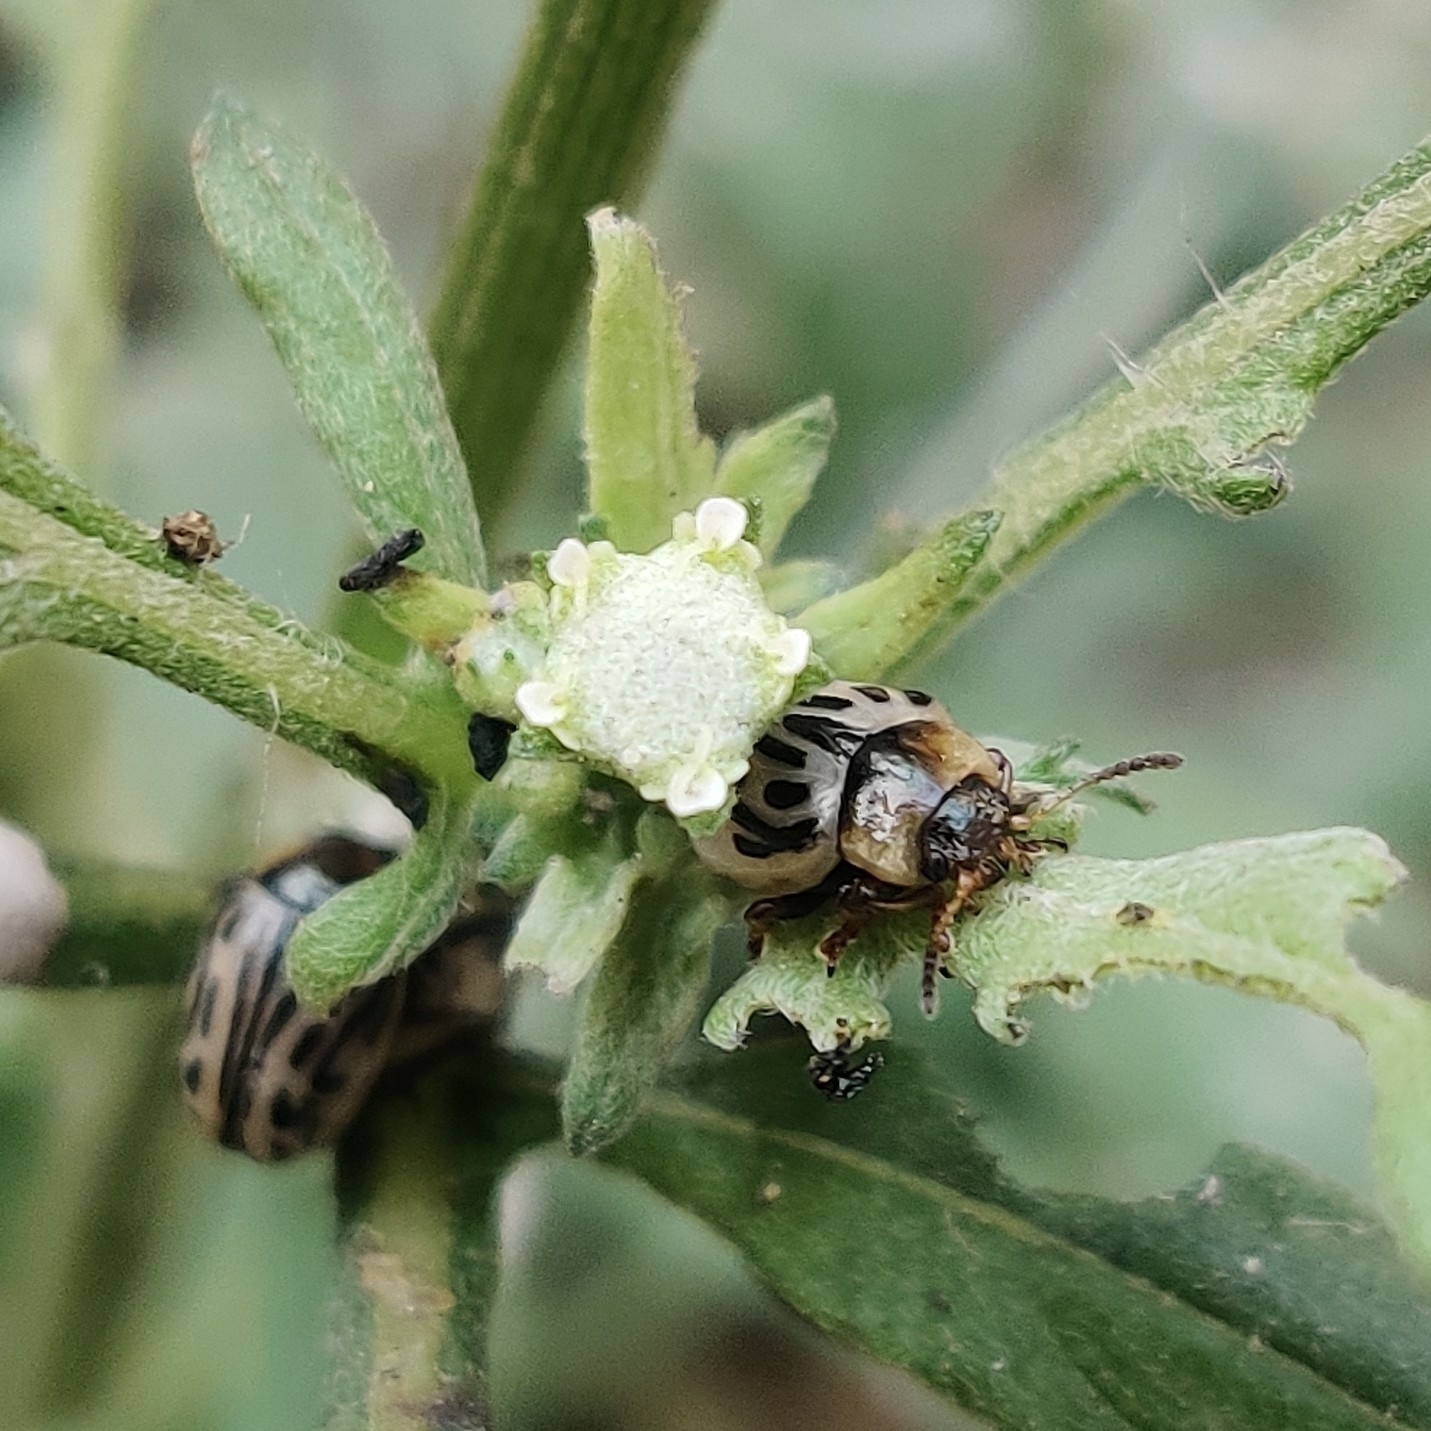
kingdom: Animalia
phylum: Arthropoda
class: Insecta
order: Coleoptera
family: Chrysomelidae
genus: Calligrapha
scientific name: Calligrapha
